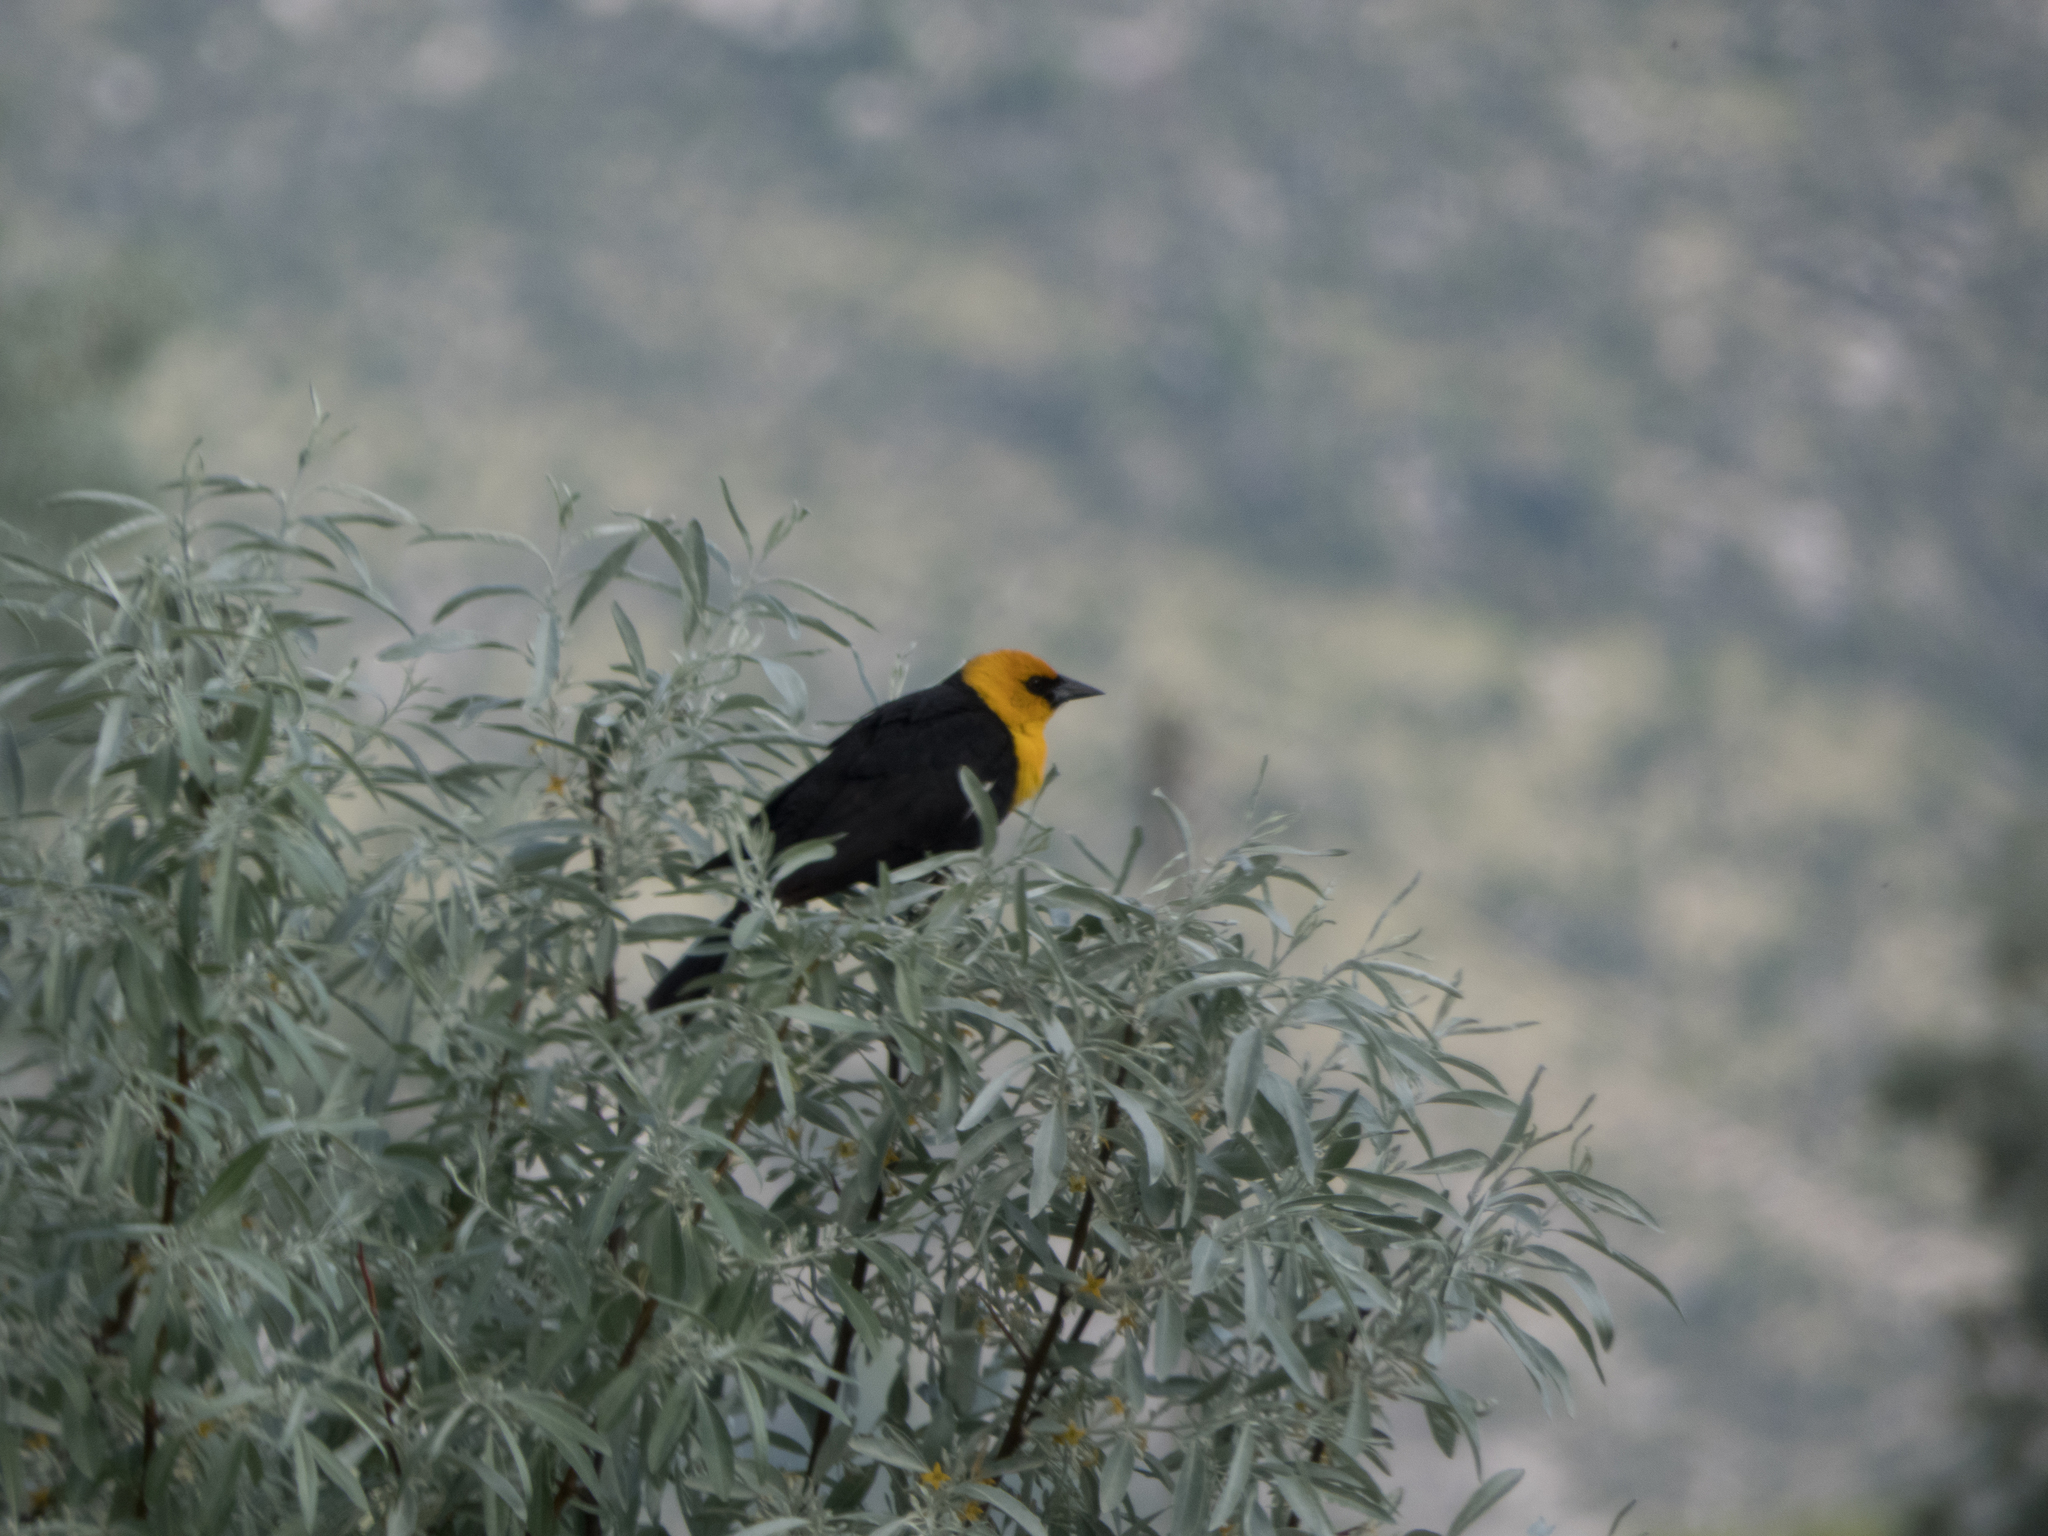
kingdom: Animalia
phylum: Chordata
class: Aves
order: Passeriformes
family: Icteridae
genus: Xanthocephalus
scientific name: Xanthocephalus xanthocephalus
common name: Yellow-headed blackbird
